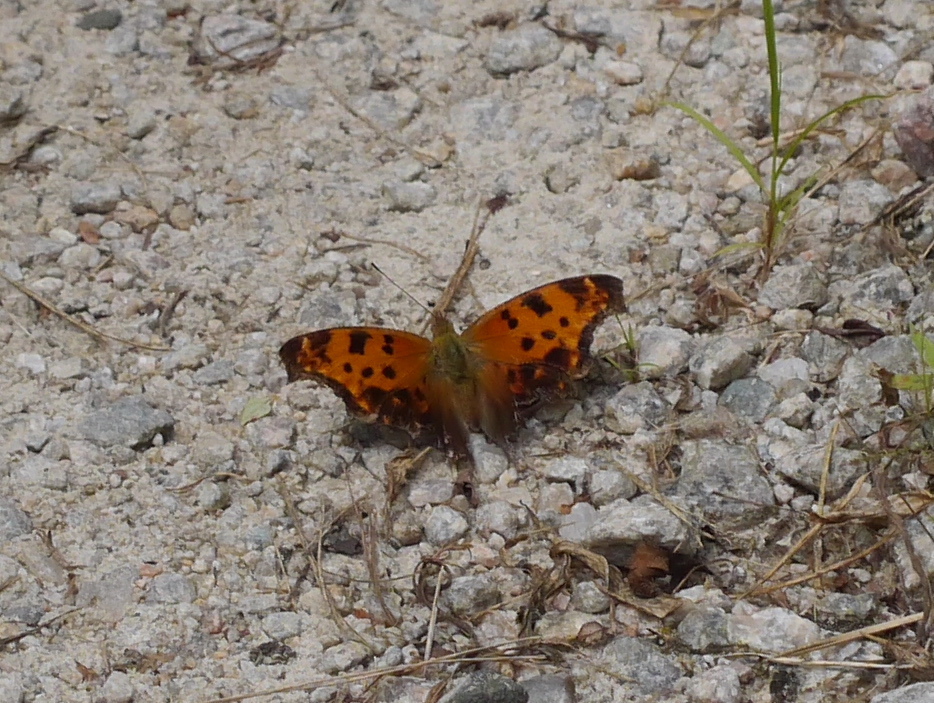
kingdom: Animalia
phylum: Arthropoda
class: Insecta
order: Lepidoptera
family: Nymphalidae
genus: Polygonia
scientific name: Polygonia comma
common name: Eastern comma
